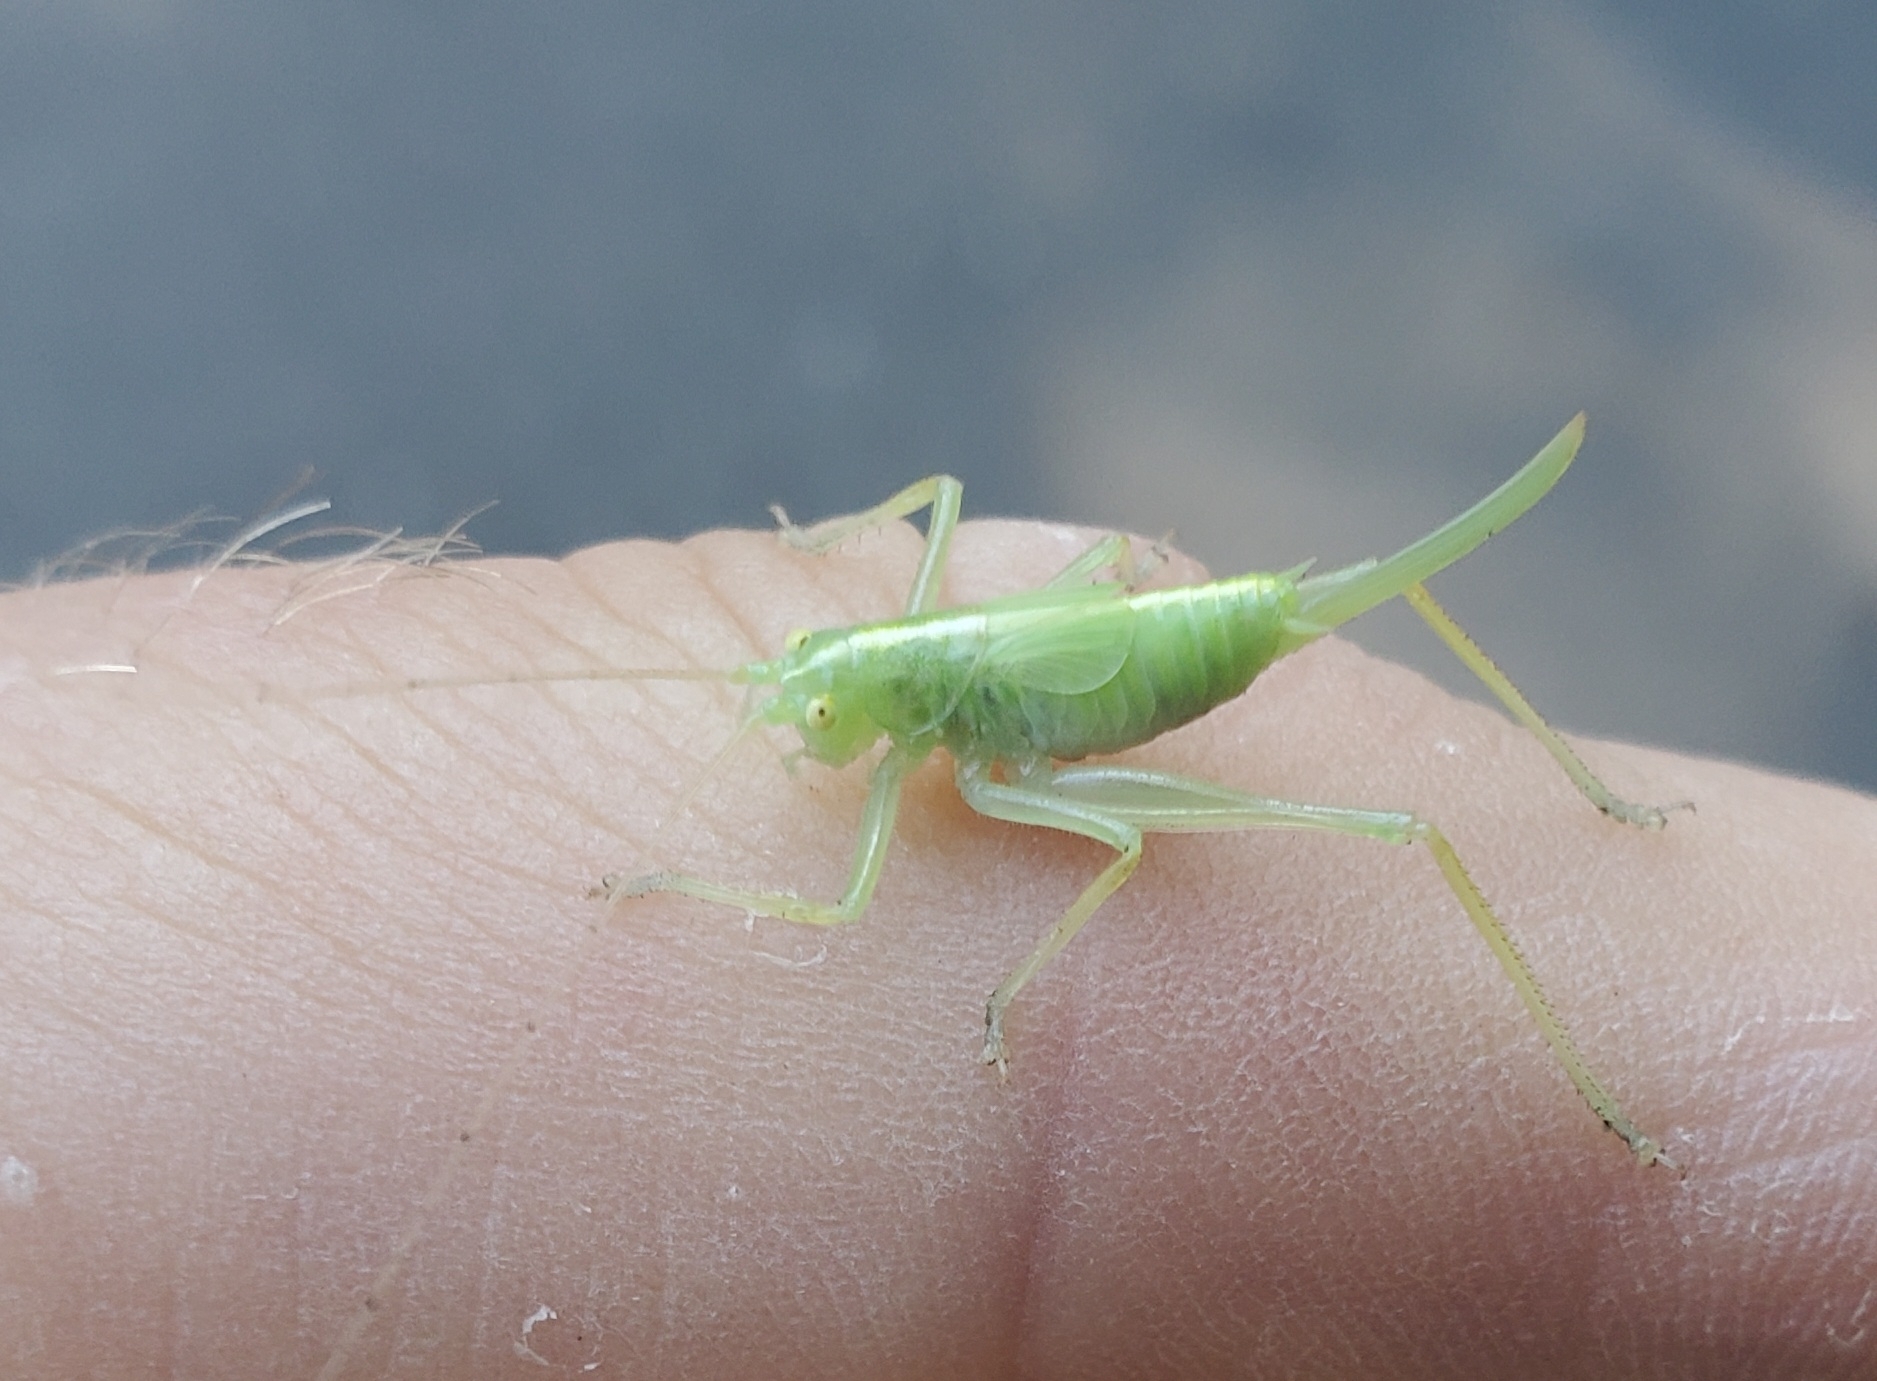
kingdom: Animalia
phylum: Arthropoda
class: Insecta
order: Orthoptera
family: Tettigoniidae
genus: Meconema
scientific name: Meconema thalassinum
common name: Oak bush-cricket
